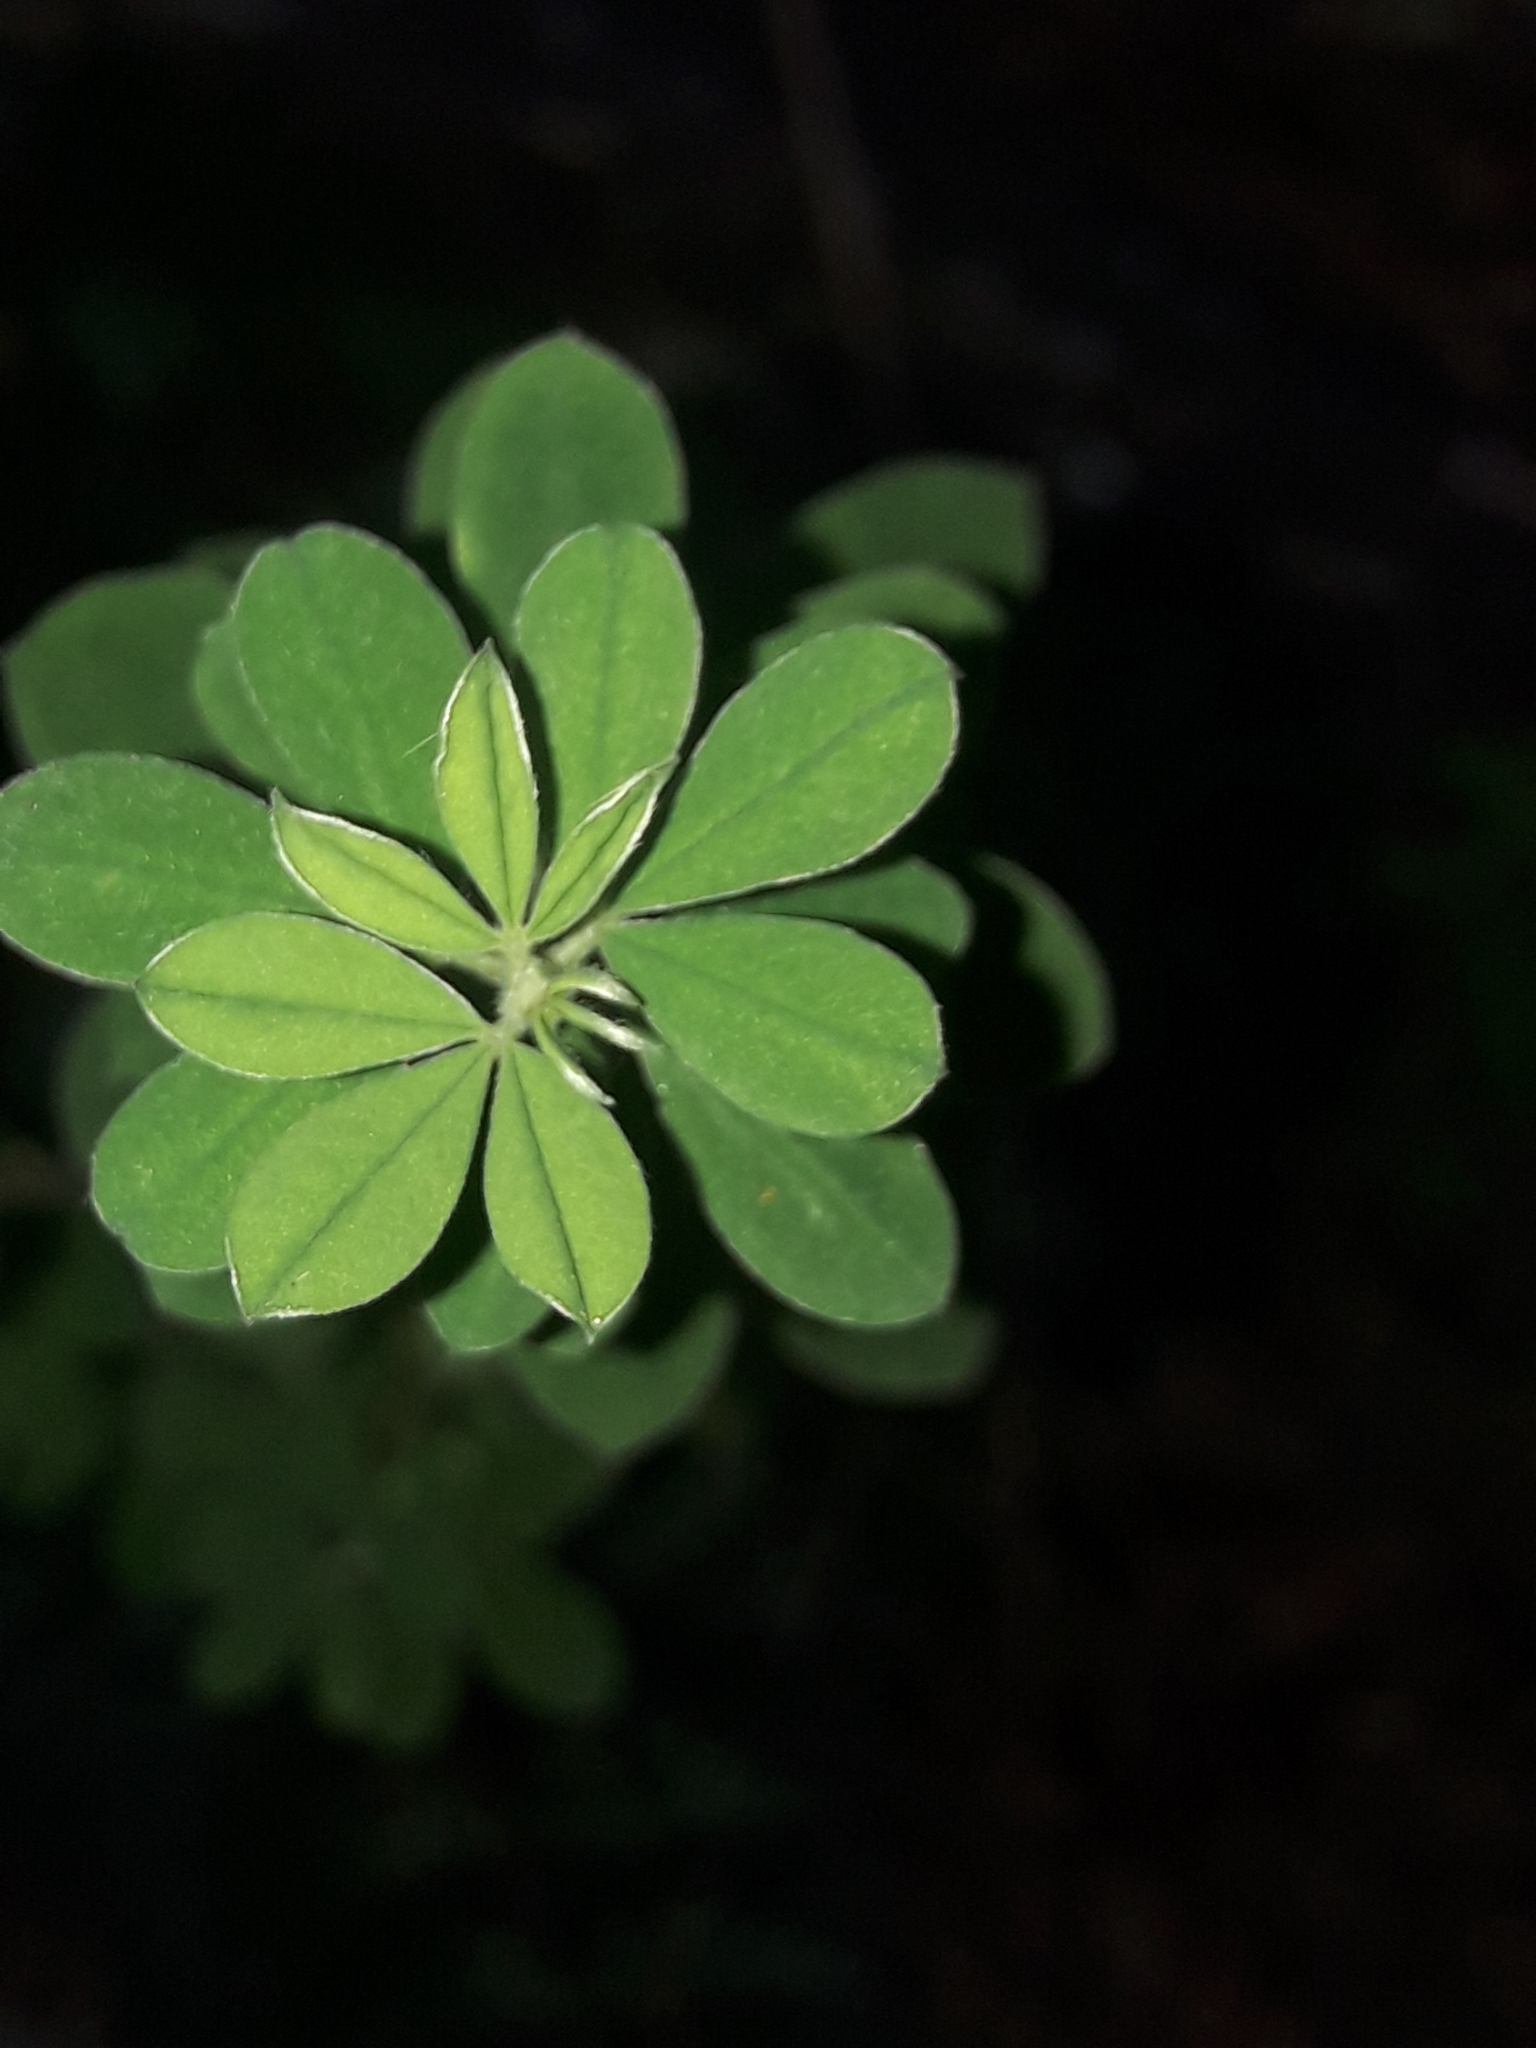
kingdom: Plantae
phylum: Tracheophyta
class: Magnoliopsida
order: Fabales
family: Fabaceae
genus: Genista
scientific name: Genista monspessulana
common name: Montpellier broom
